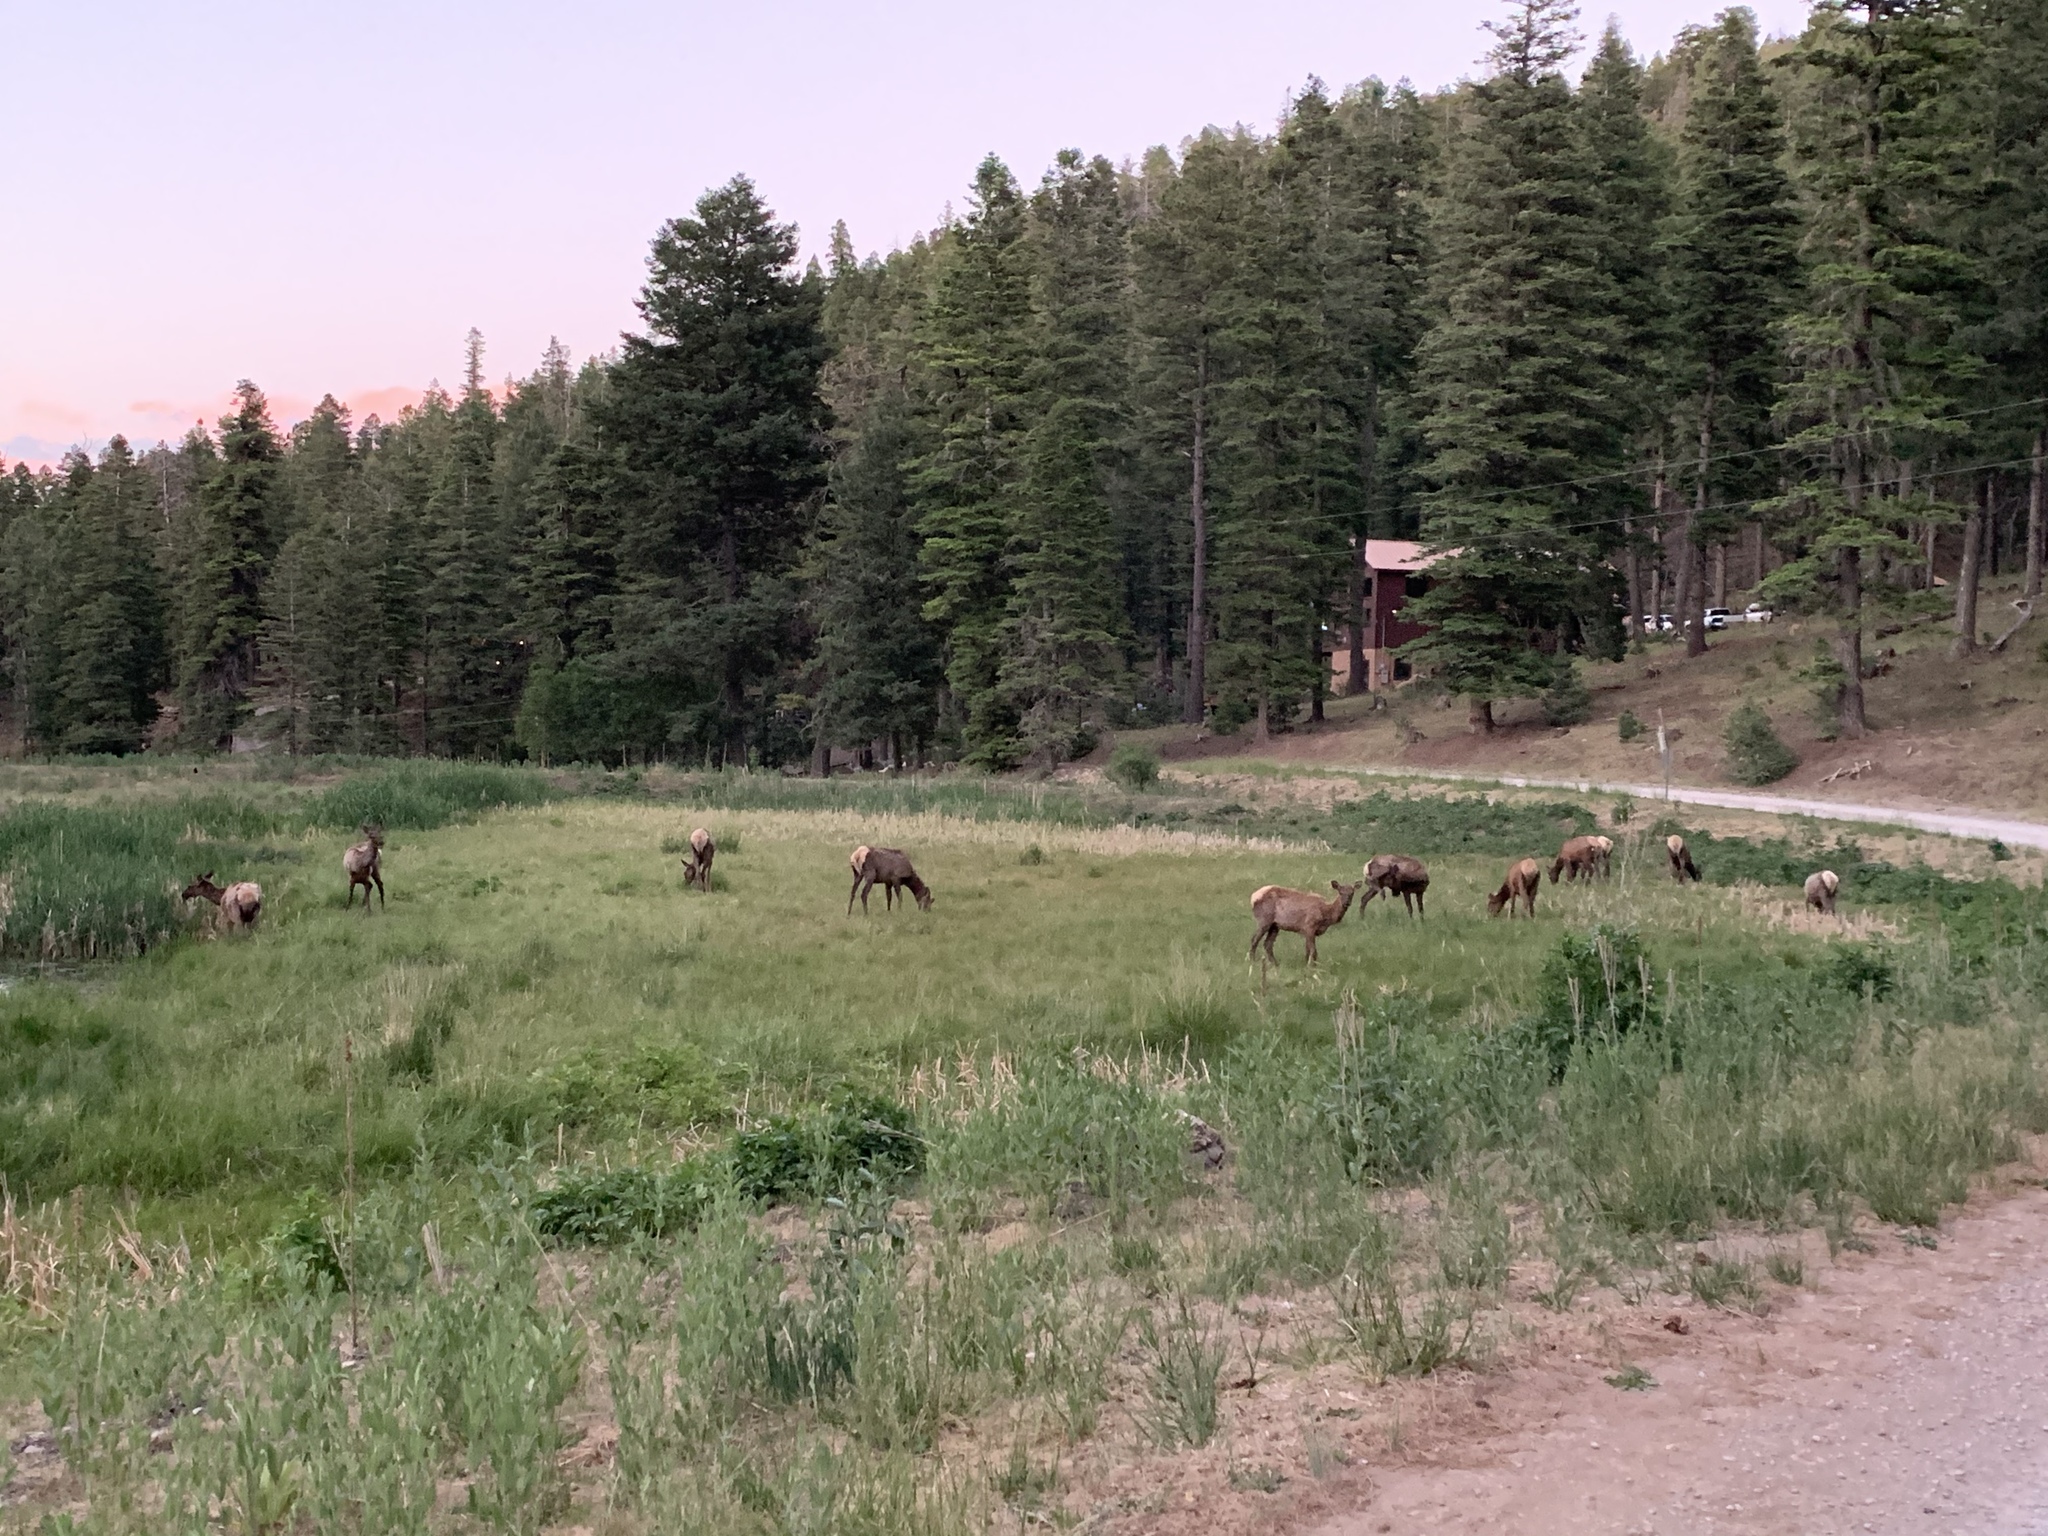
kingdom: Animalia
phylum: Chordata
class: Mammalia
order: Artiodactyla
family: Cervidae
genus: Cervus
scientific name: Cervus elaphus
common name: Red deer
